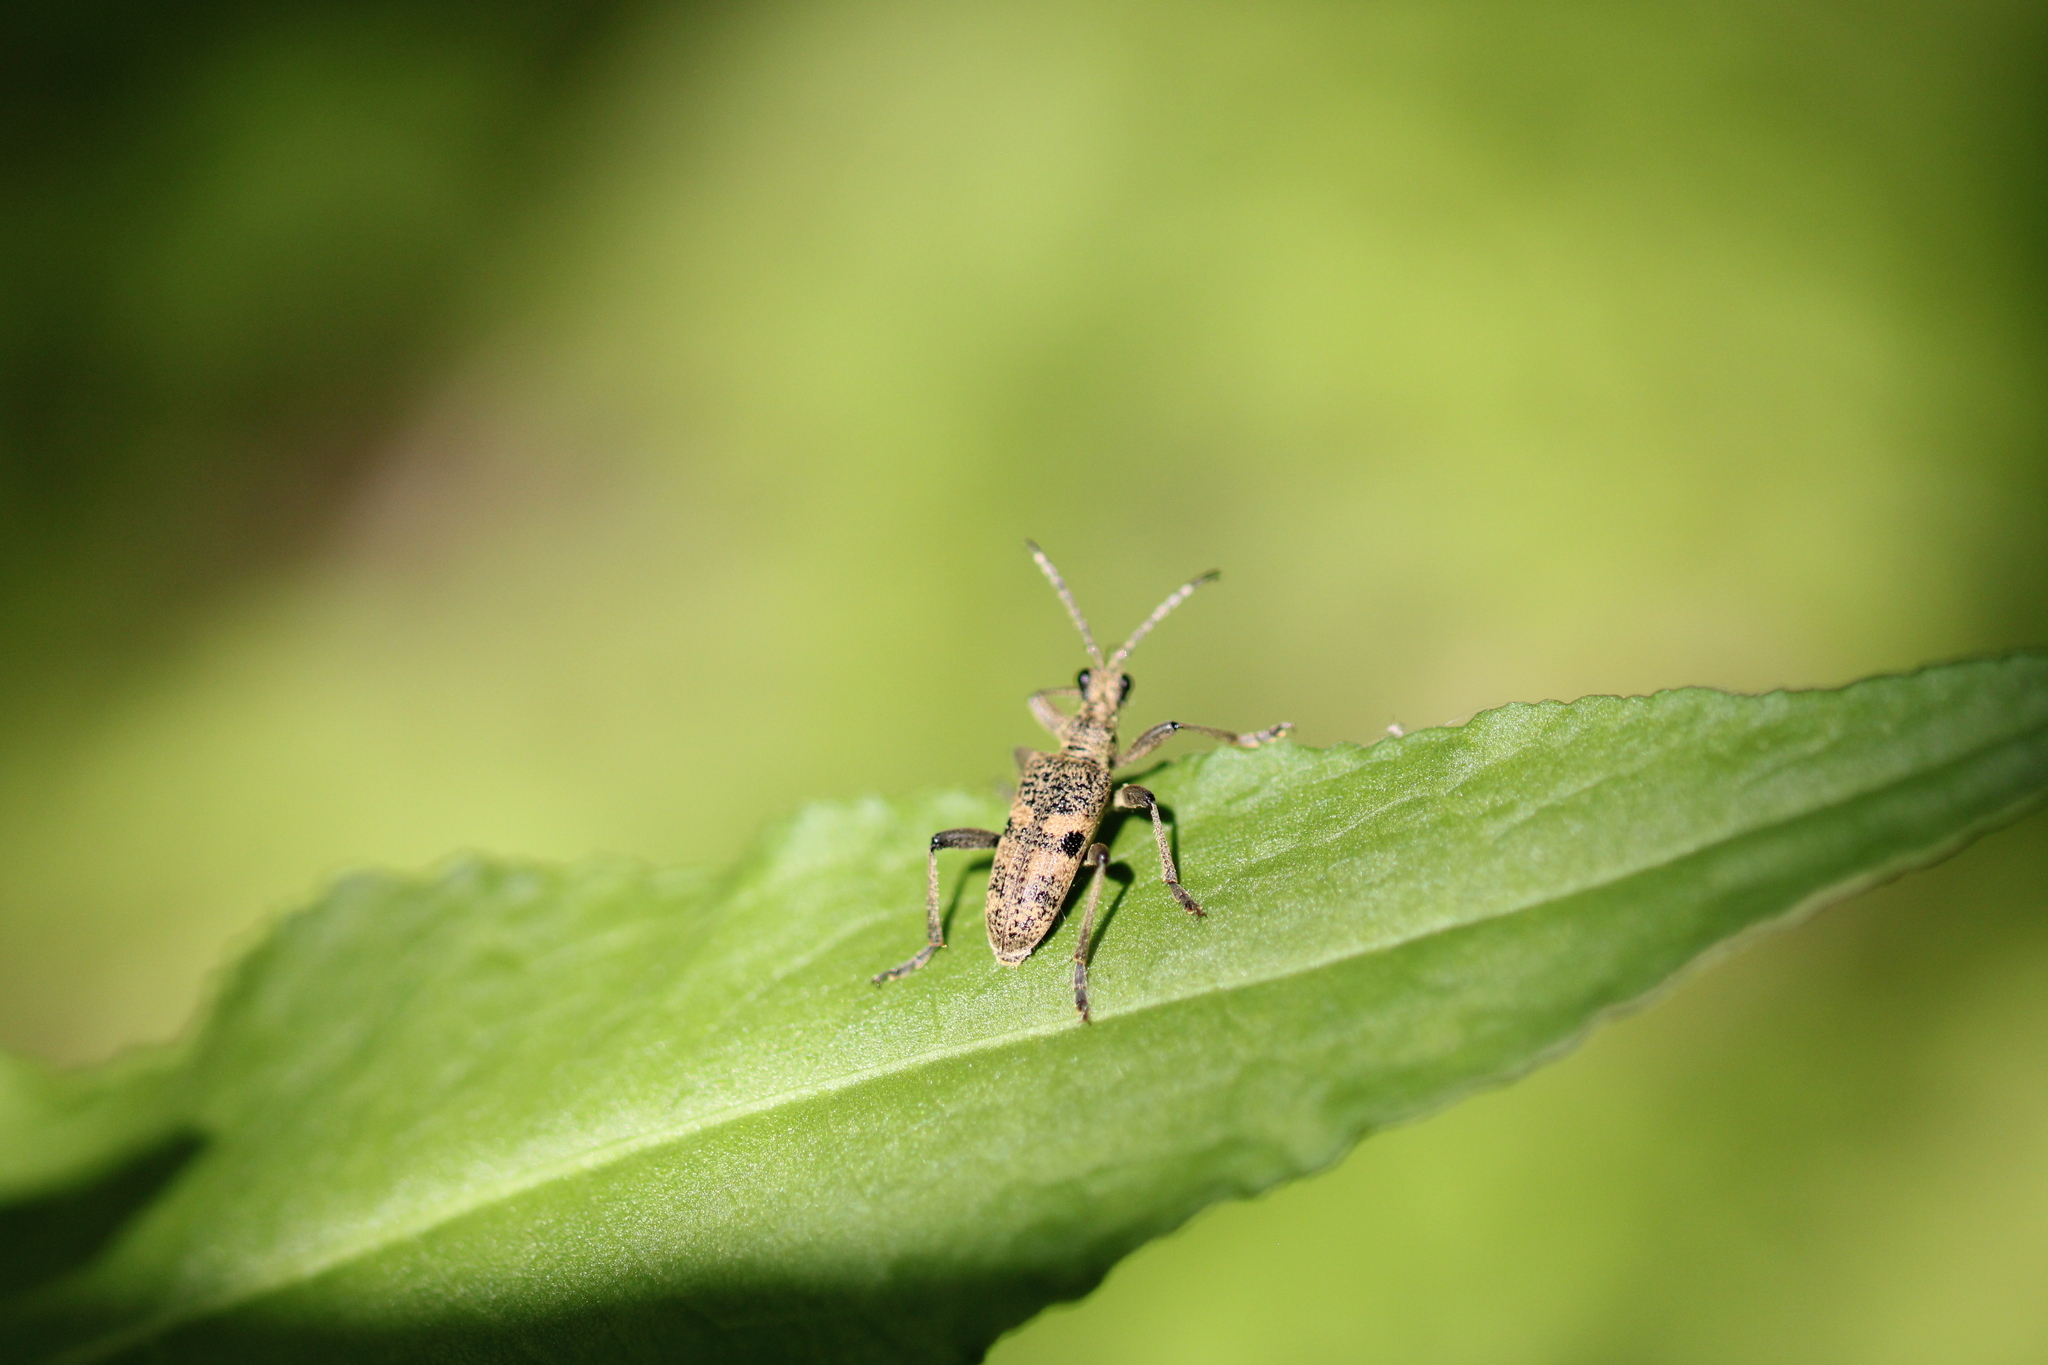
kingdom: Animalia
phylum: Arthropoda
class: Insecta
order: Coleoptera
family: Cerambycidae
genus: Rhagium
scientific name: Rhagium mordax
